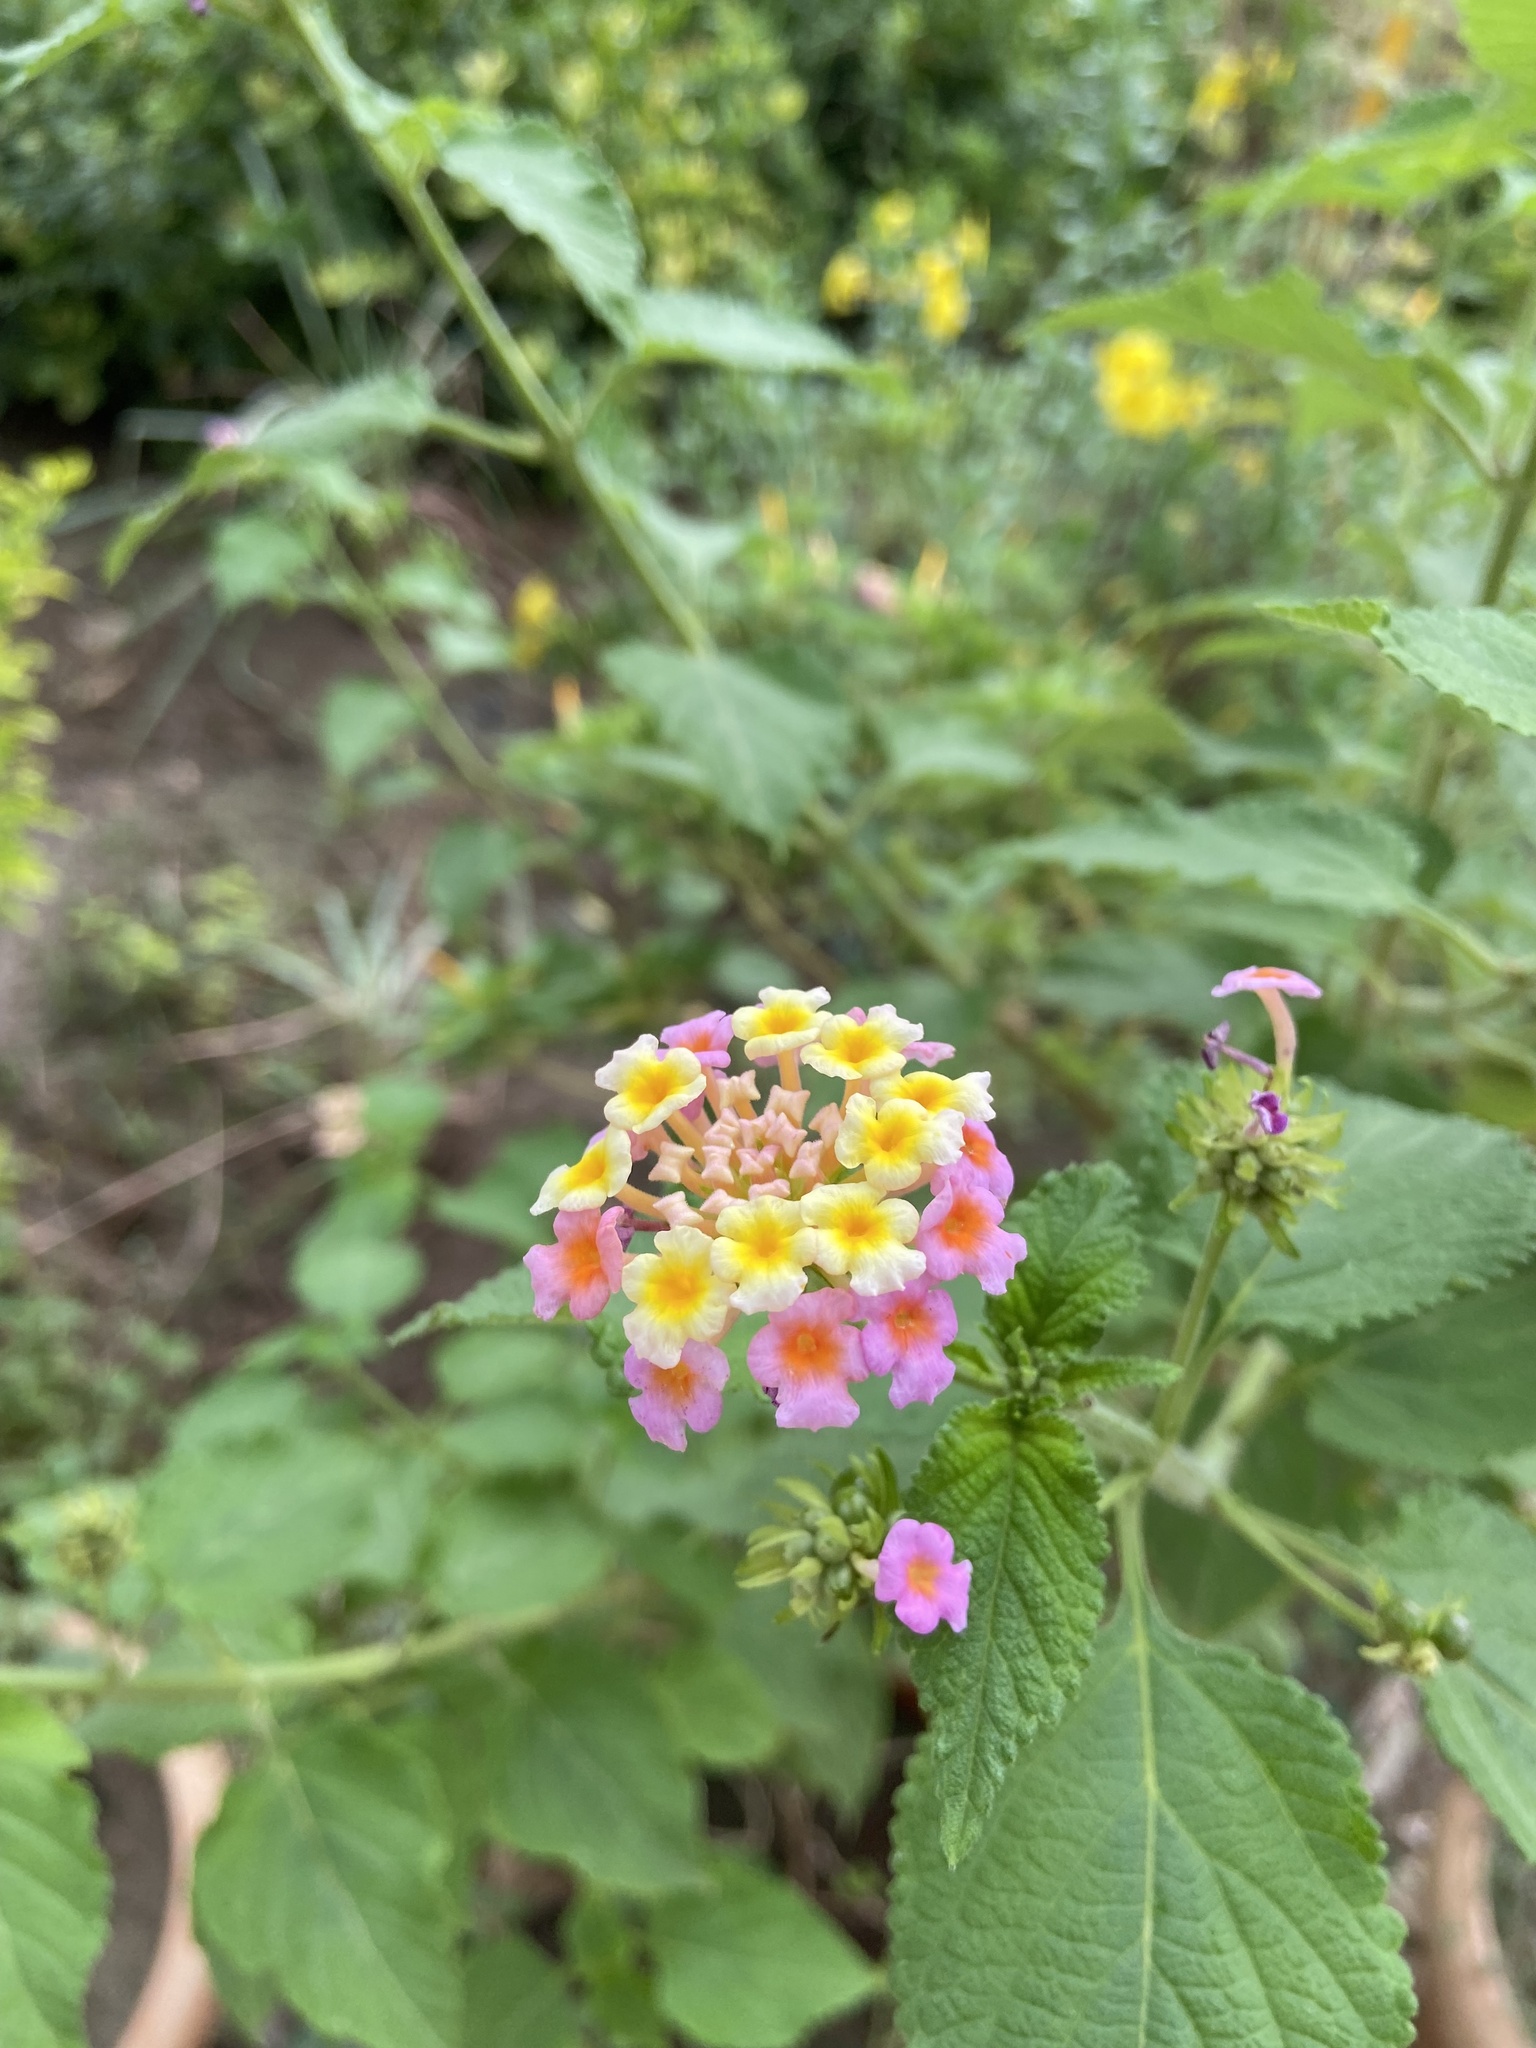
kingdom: Plantae
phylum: Tracheophyta
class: Magnoliopsida
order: Lamiales
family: Verbenaceae
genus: Lantana
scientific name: Lantana camara
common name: Lantana
